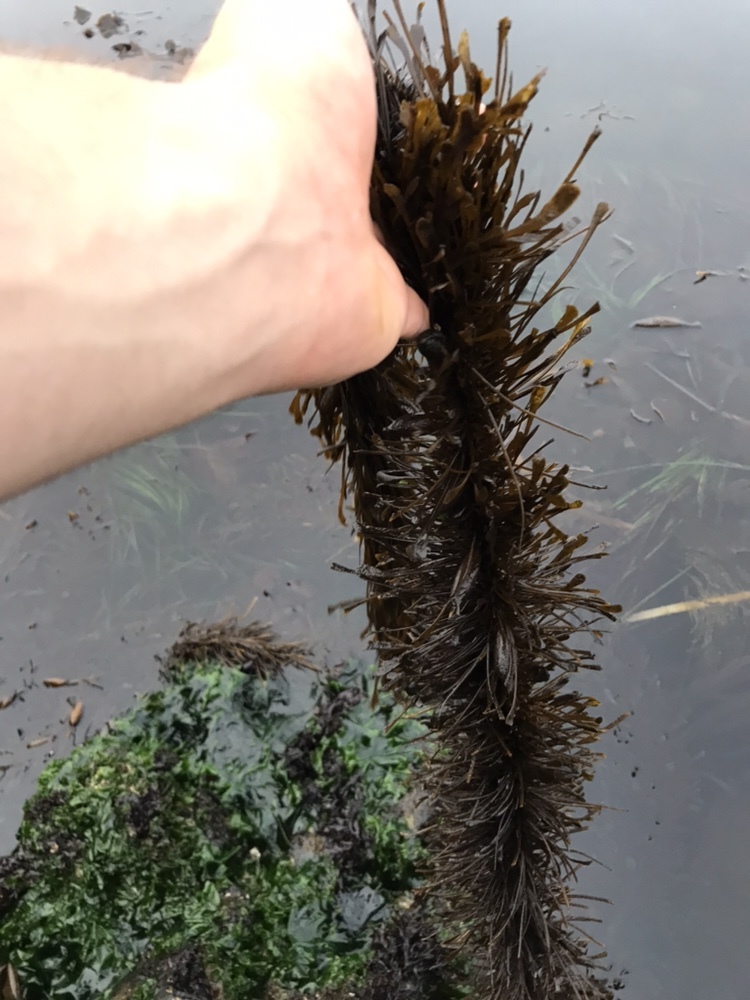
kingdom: Chromista
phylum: Ochrophyta
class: Phaeophyceae
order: Laminariales
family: Lessoniaceae
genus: Egregia
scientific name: Egregia menziesii
